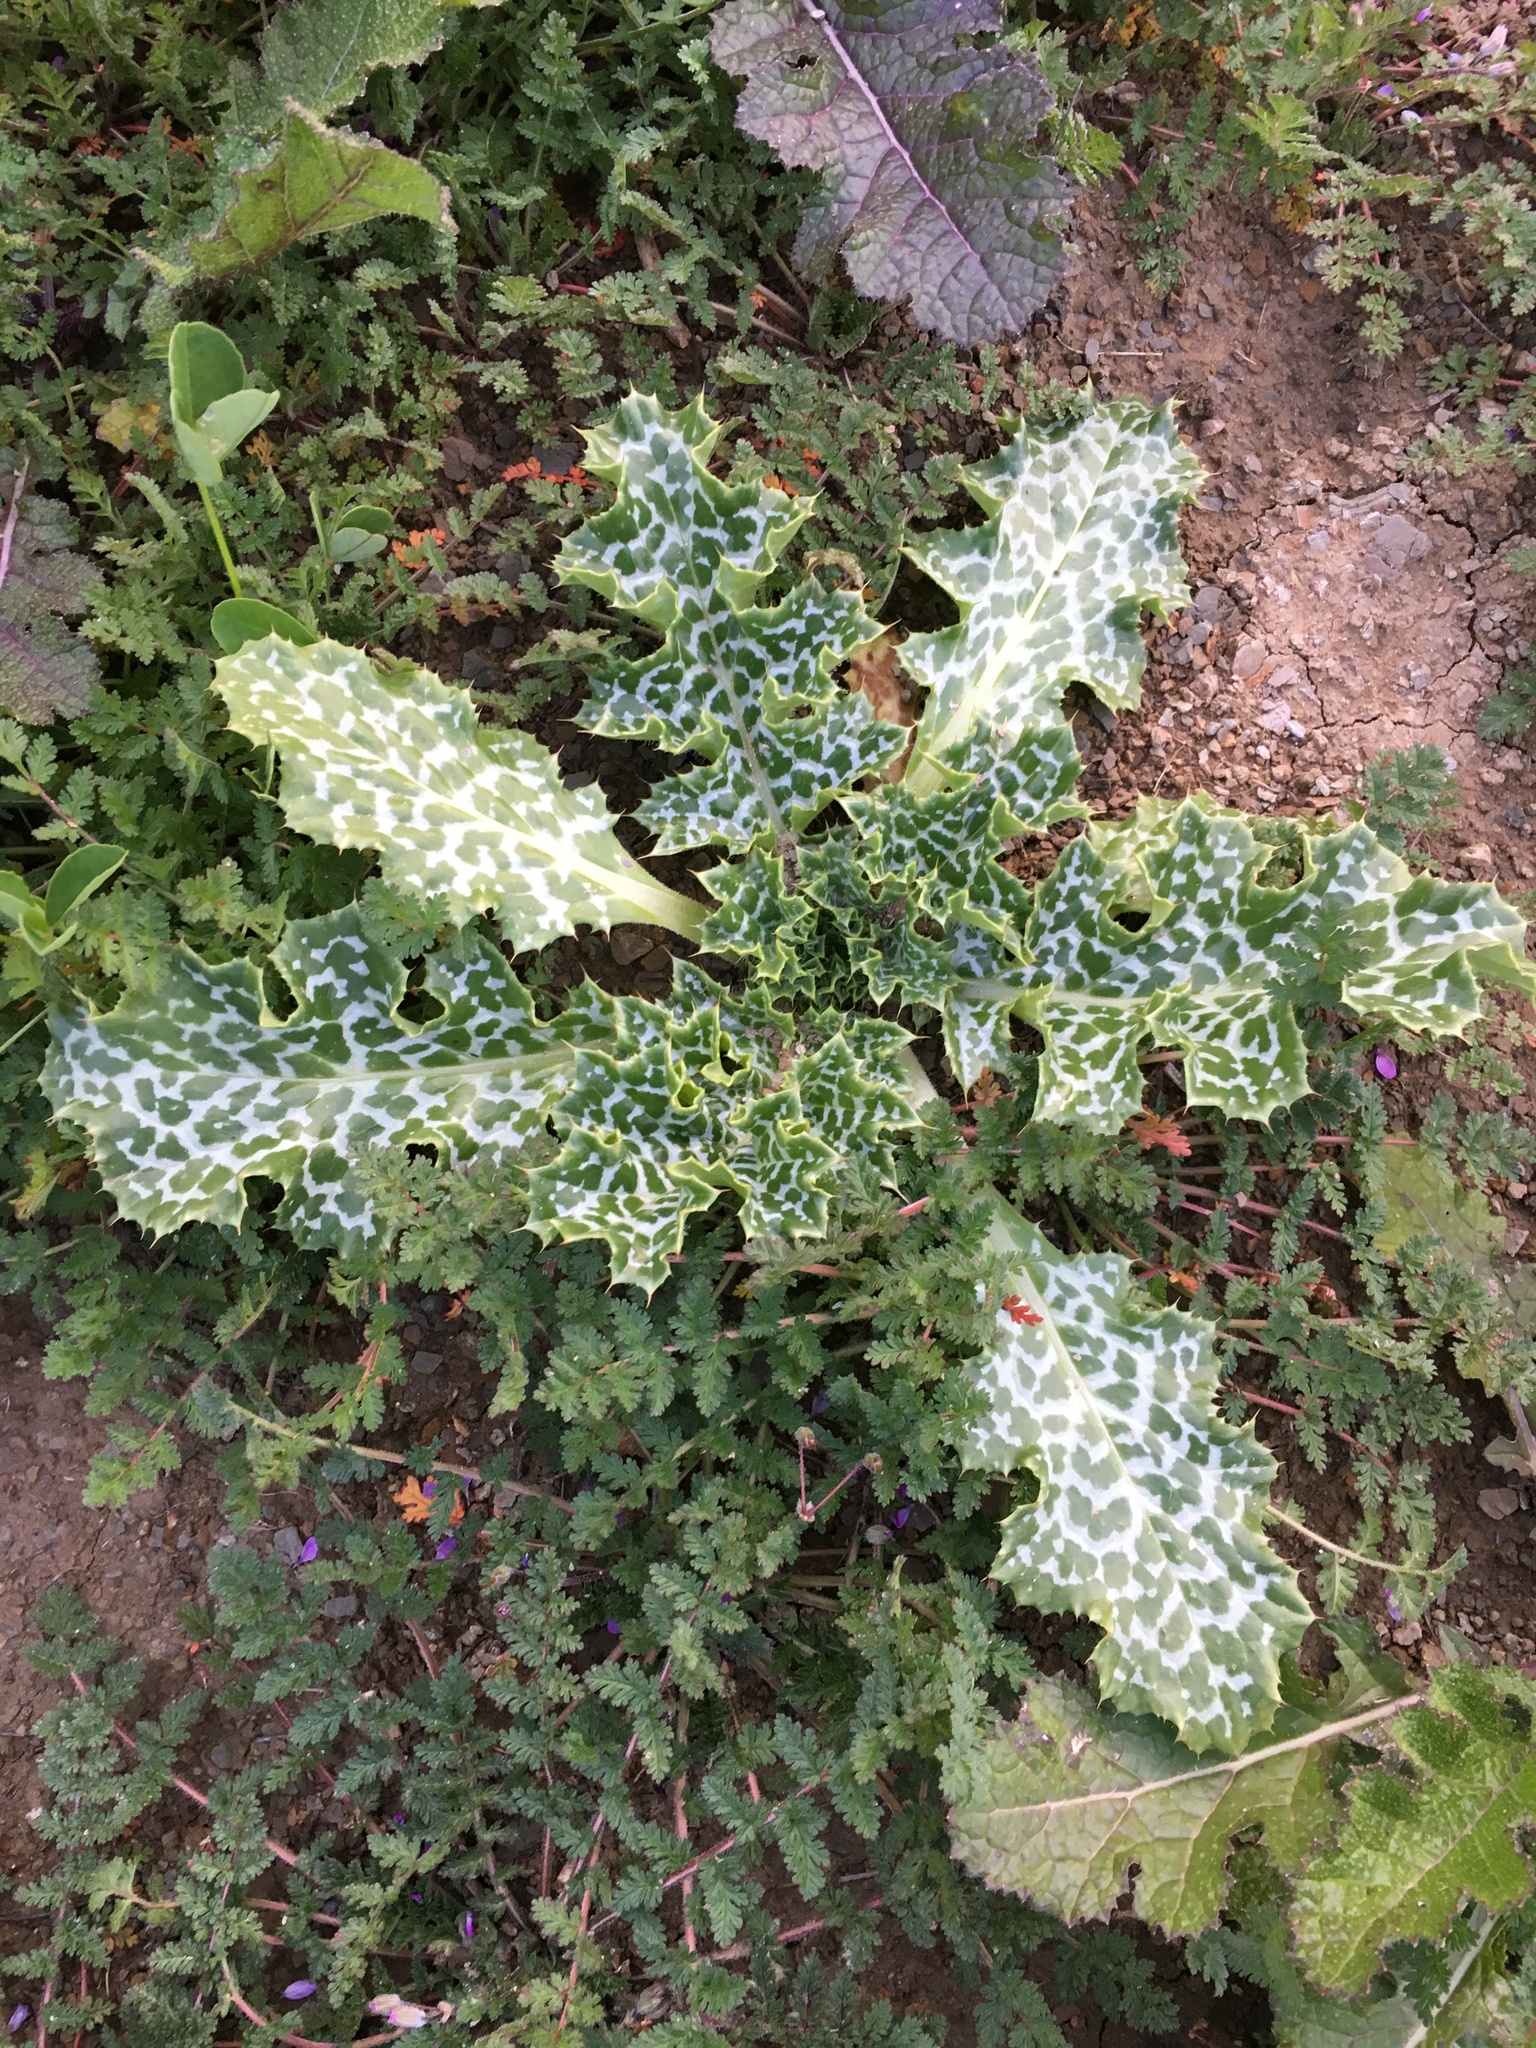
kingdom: Plantae
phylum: Tracheophyta
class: Magnoliopsida
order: Asterales
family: Asteraceae
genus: Silybum
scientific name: Silybum marianum
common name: Milk thistle
